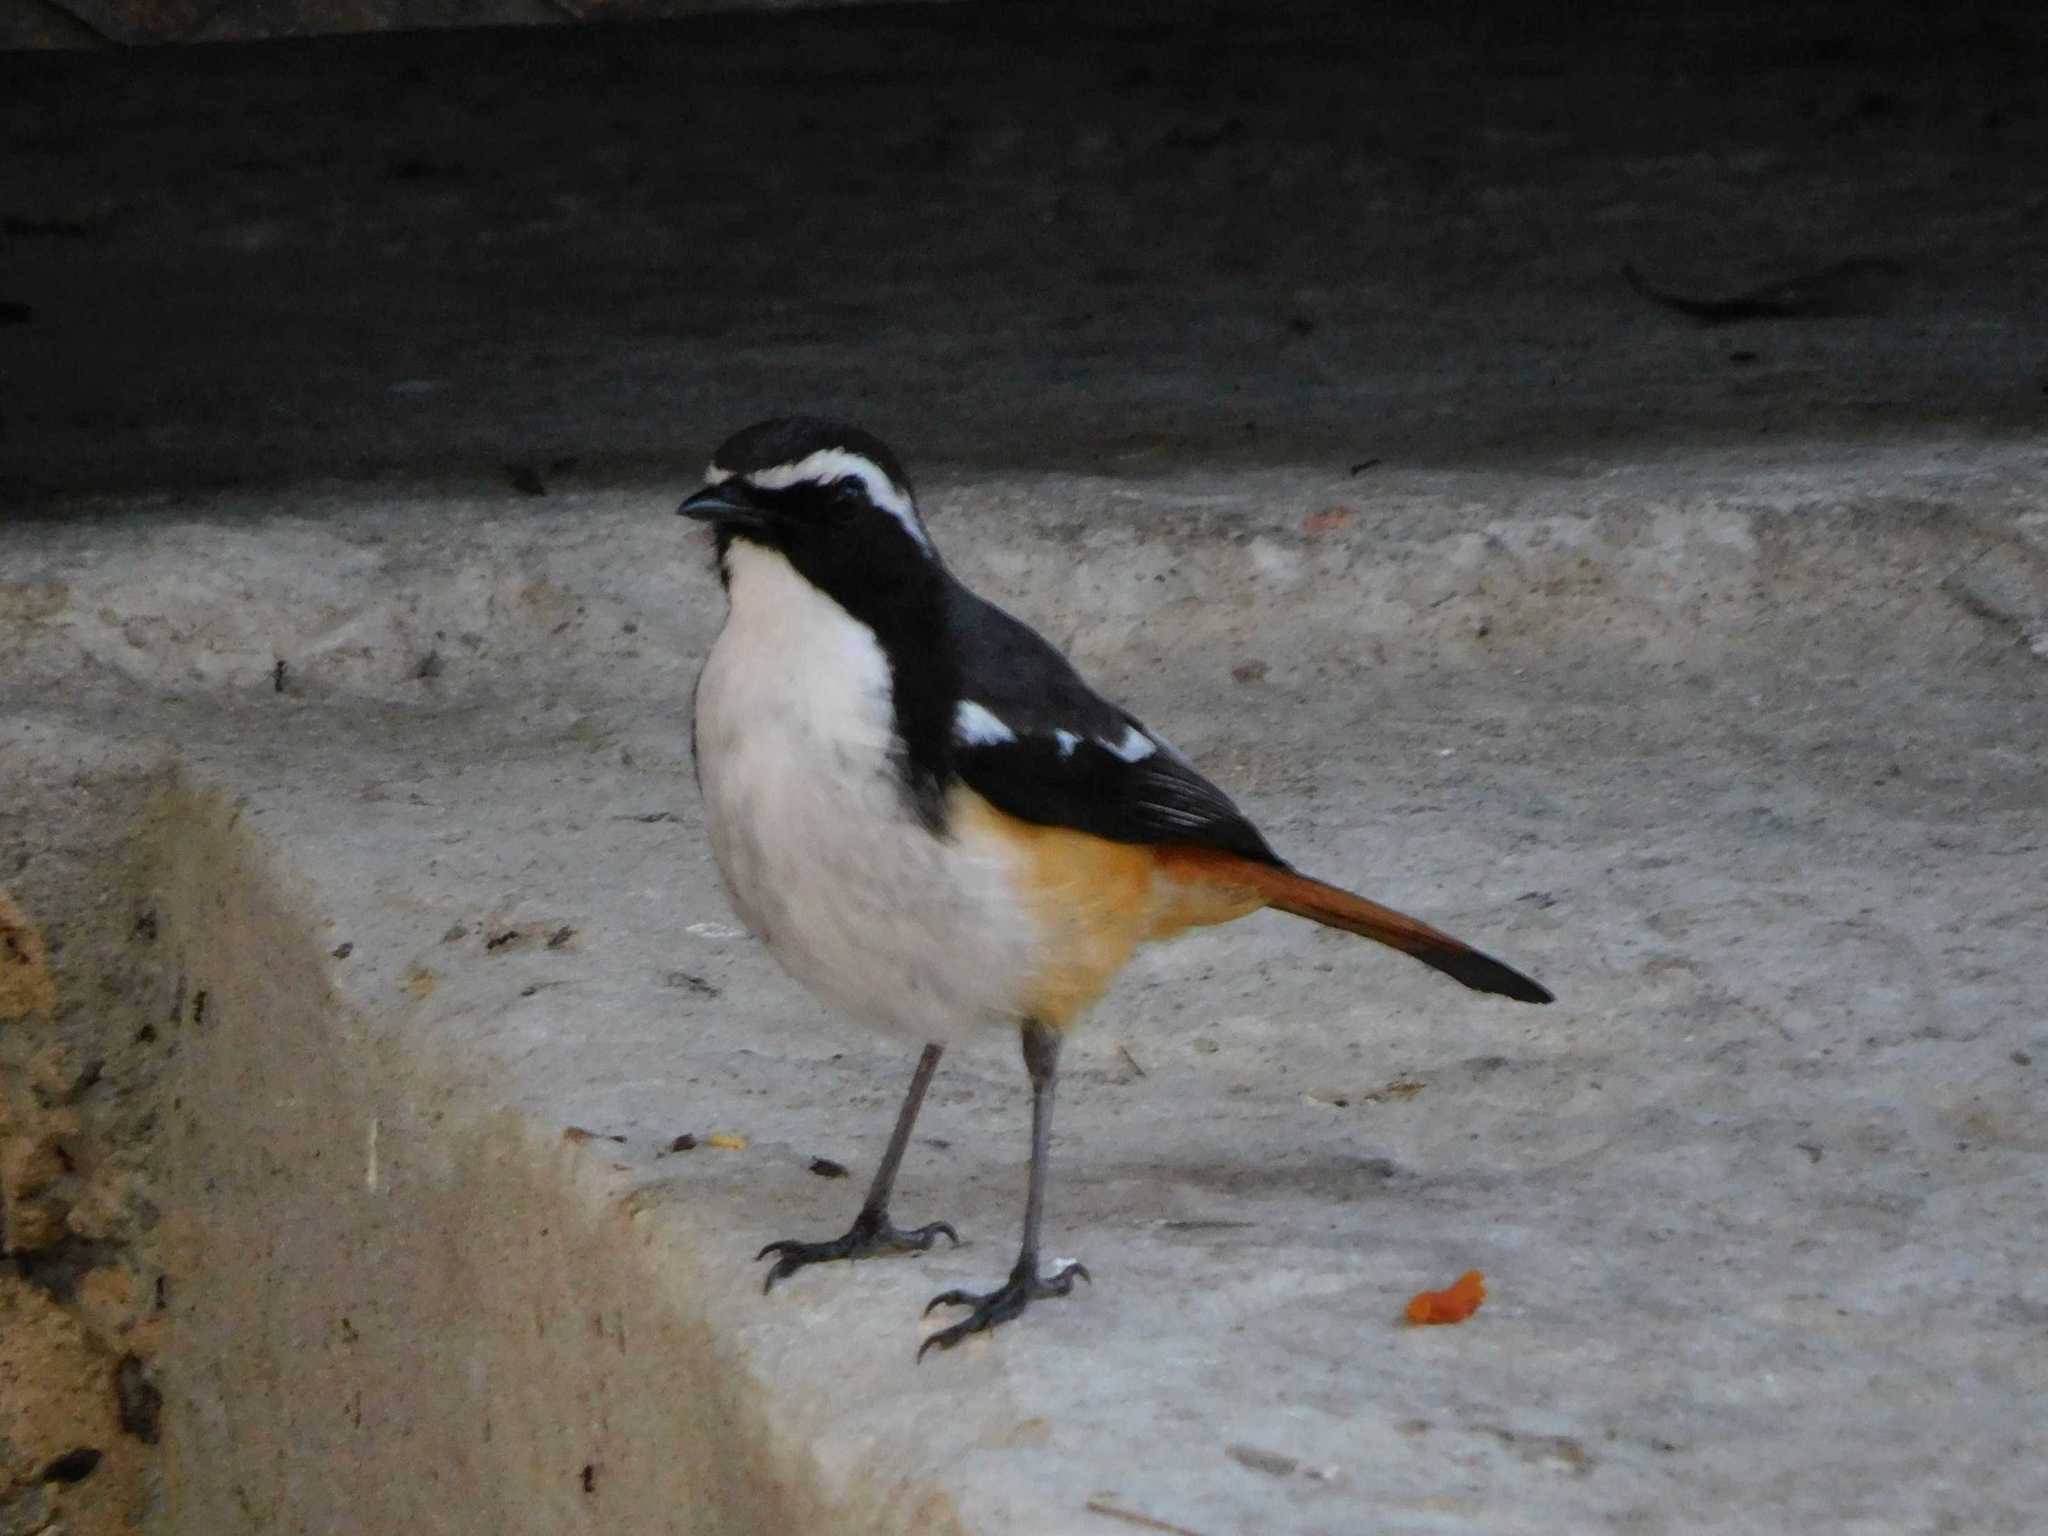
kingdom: Animalia
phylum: Chordata
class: Aves
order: Passeriformes
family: Muscicapidae
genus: Cossypha
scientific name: Cossypha humeralis
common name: White-throated robin-chat
